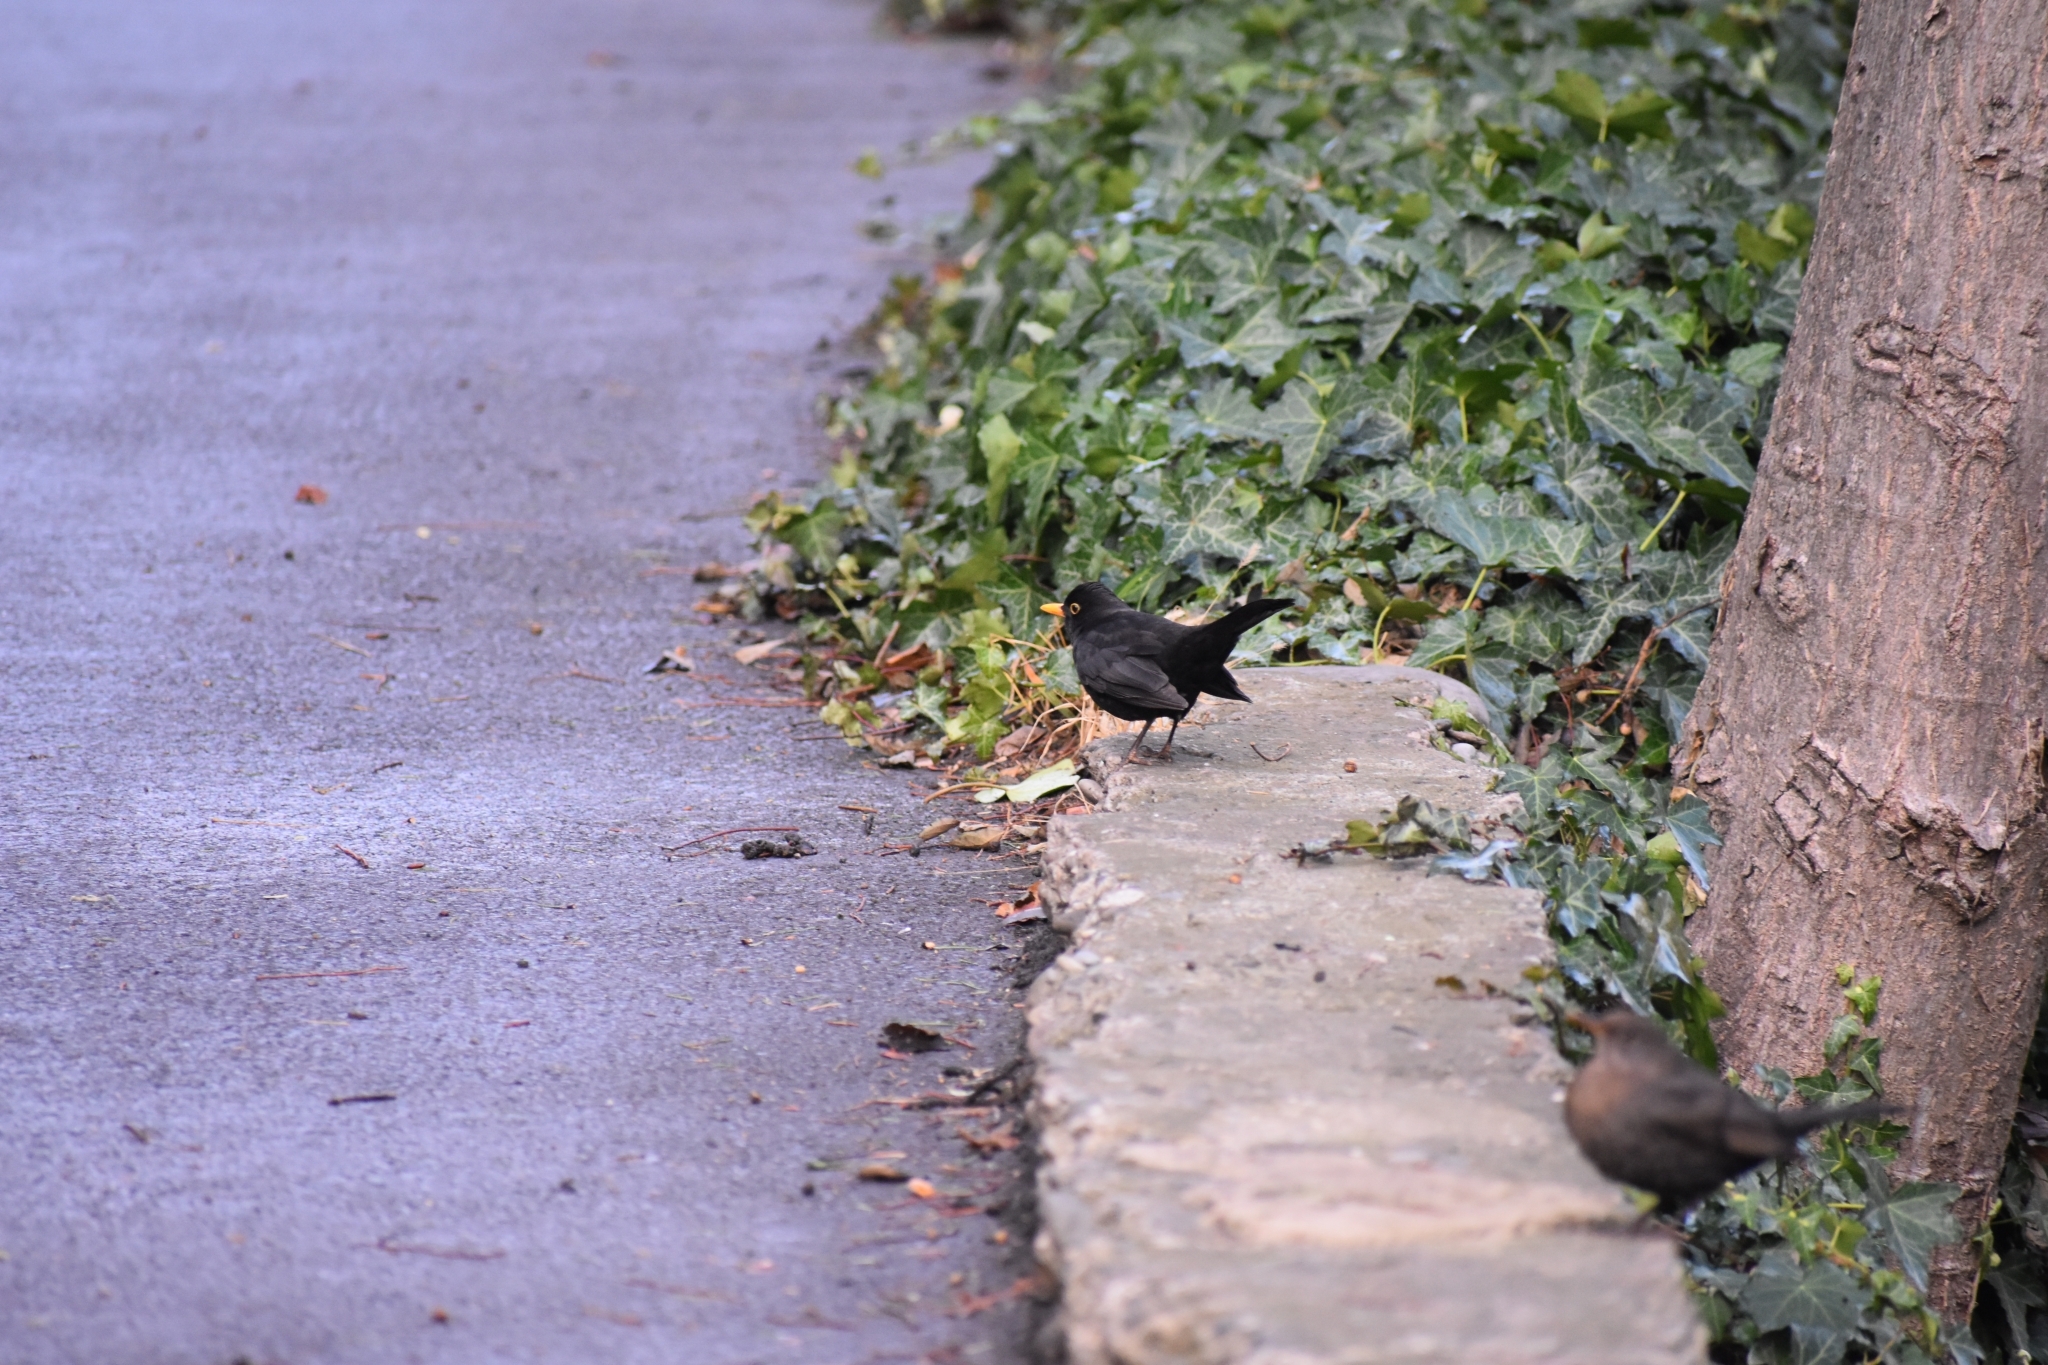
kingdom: Animalia
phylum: Chordata
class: Aves
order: Passeriformes
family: Turdidae
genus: Turdus
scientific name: Turdus merula
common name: Common blackbird
